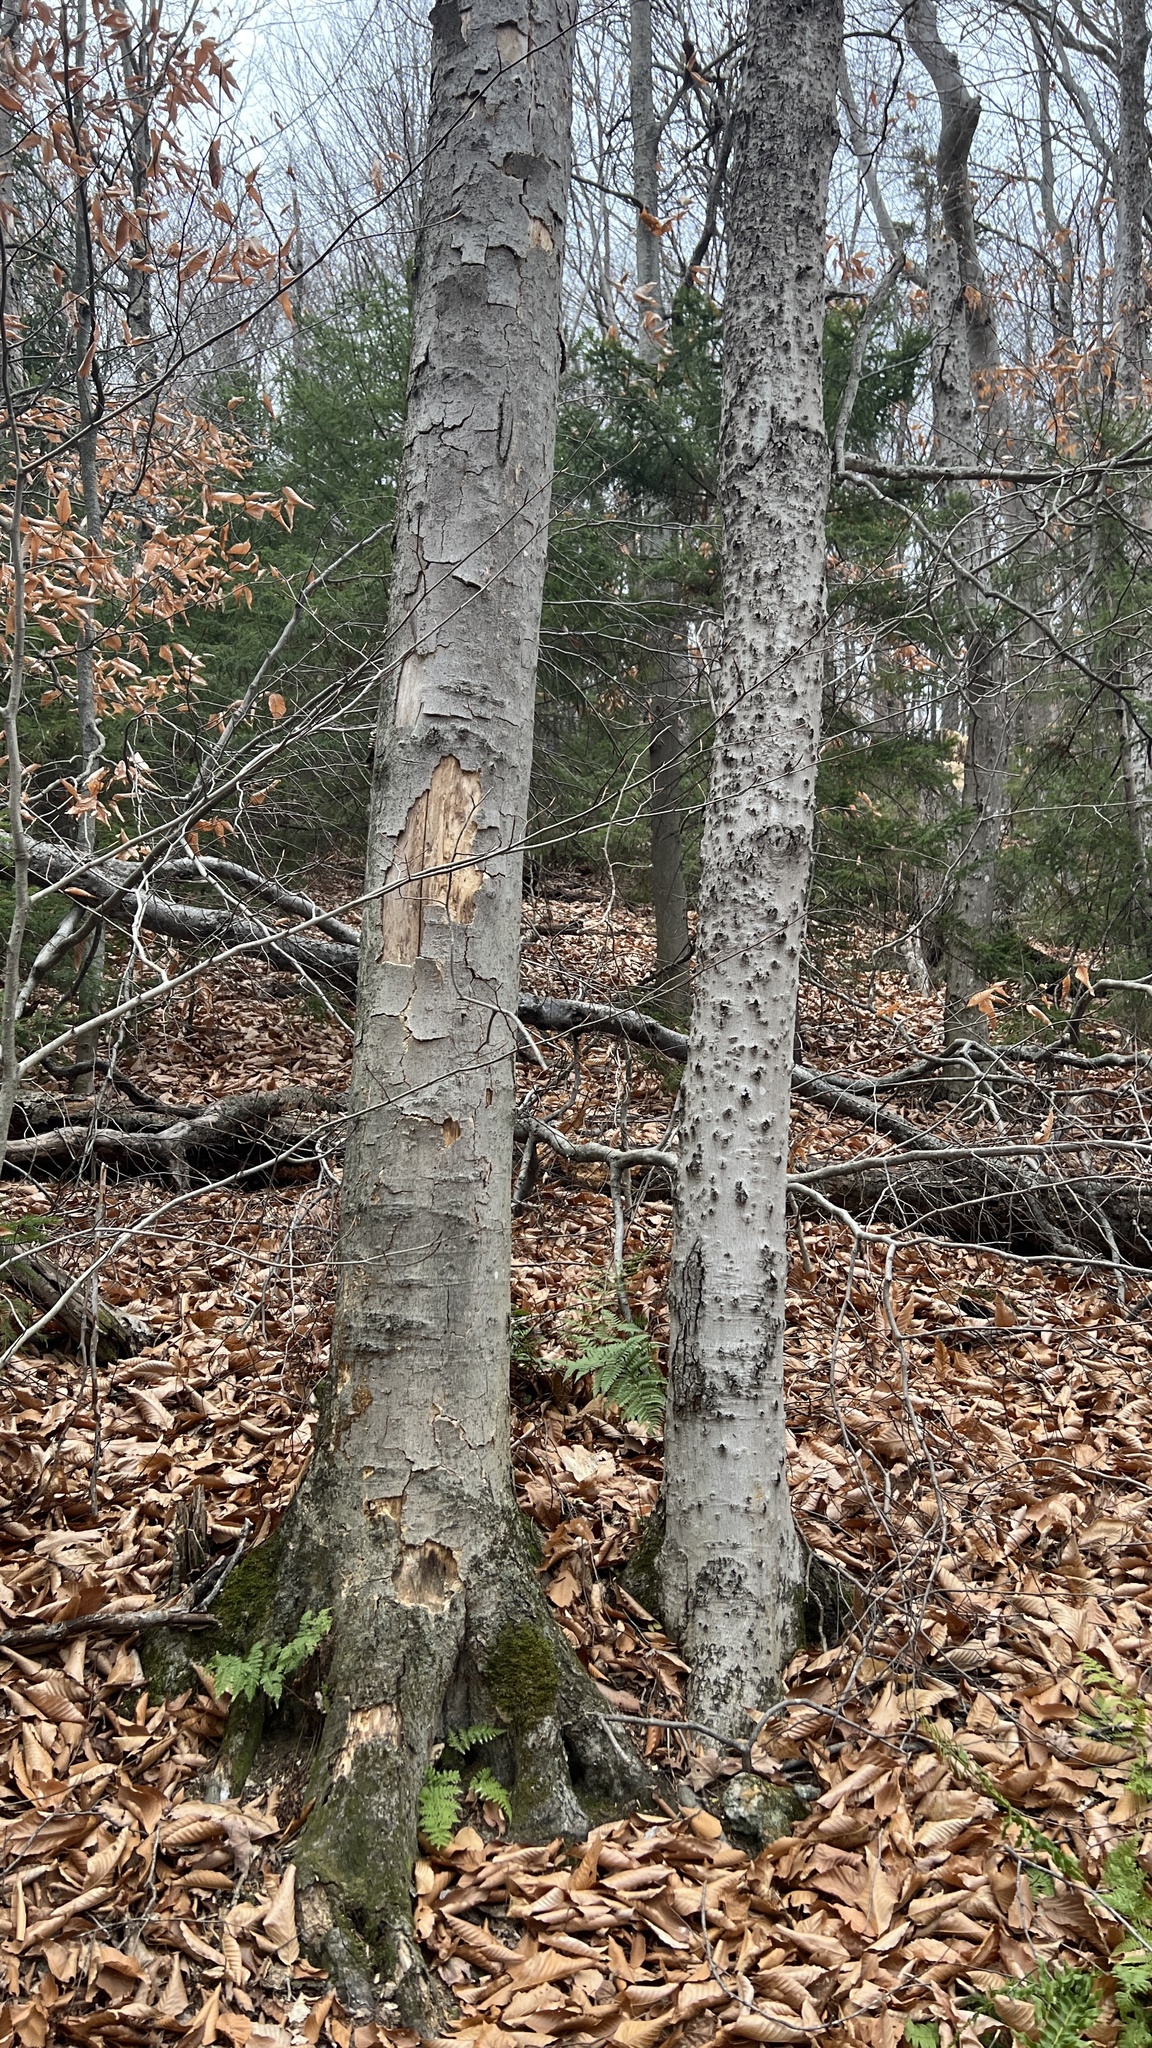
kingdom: Plantae
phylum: Tracheophyta
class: Magnoliopsida
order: Fagales
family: Fagaceae
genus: Fagus
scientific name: Fagus grandifolia
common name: American beech
